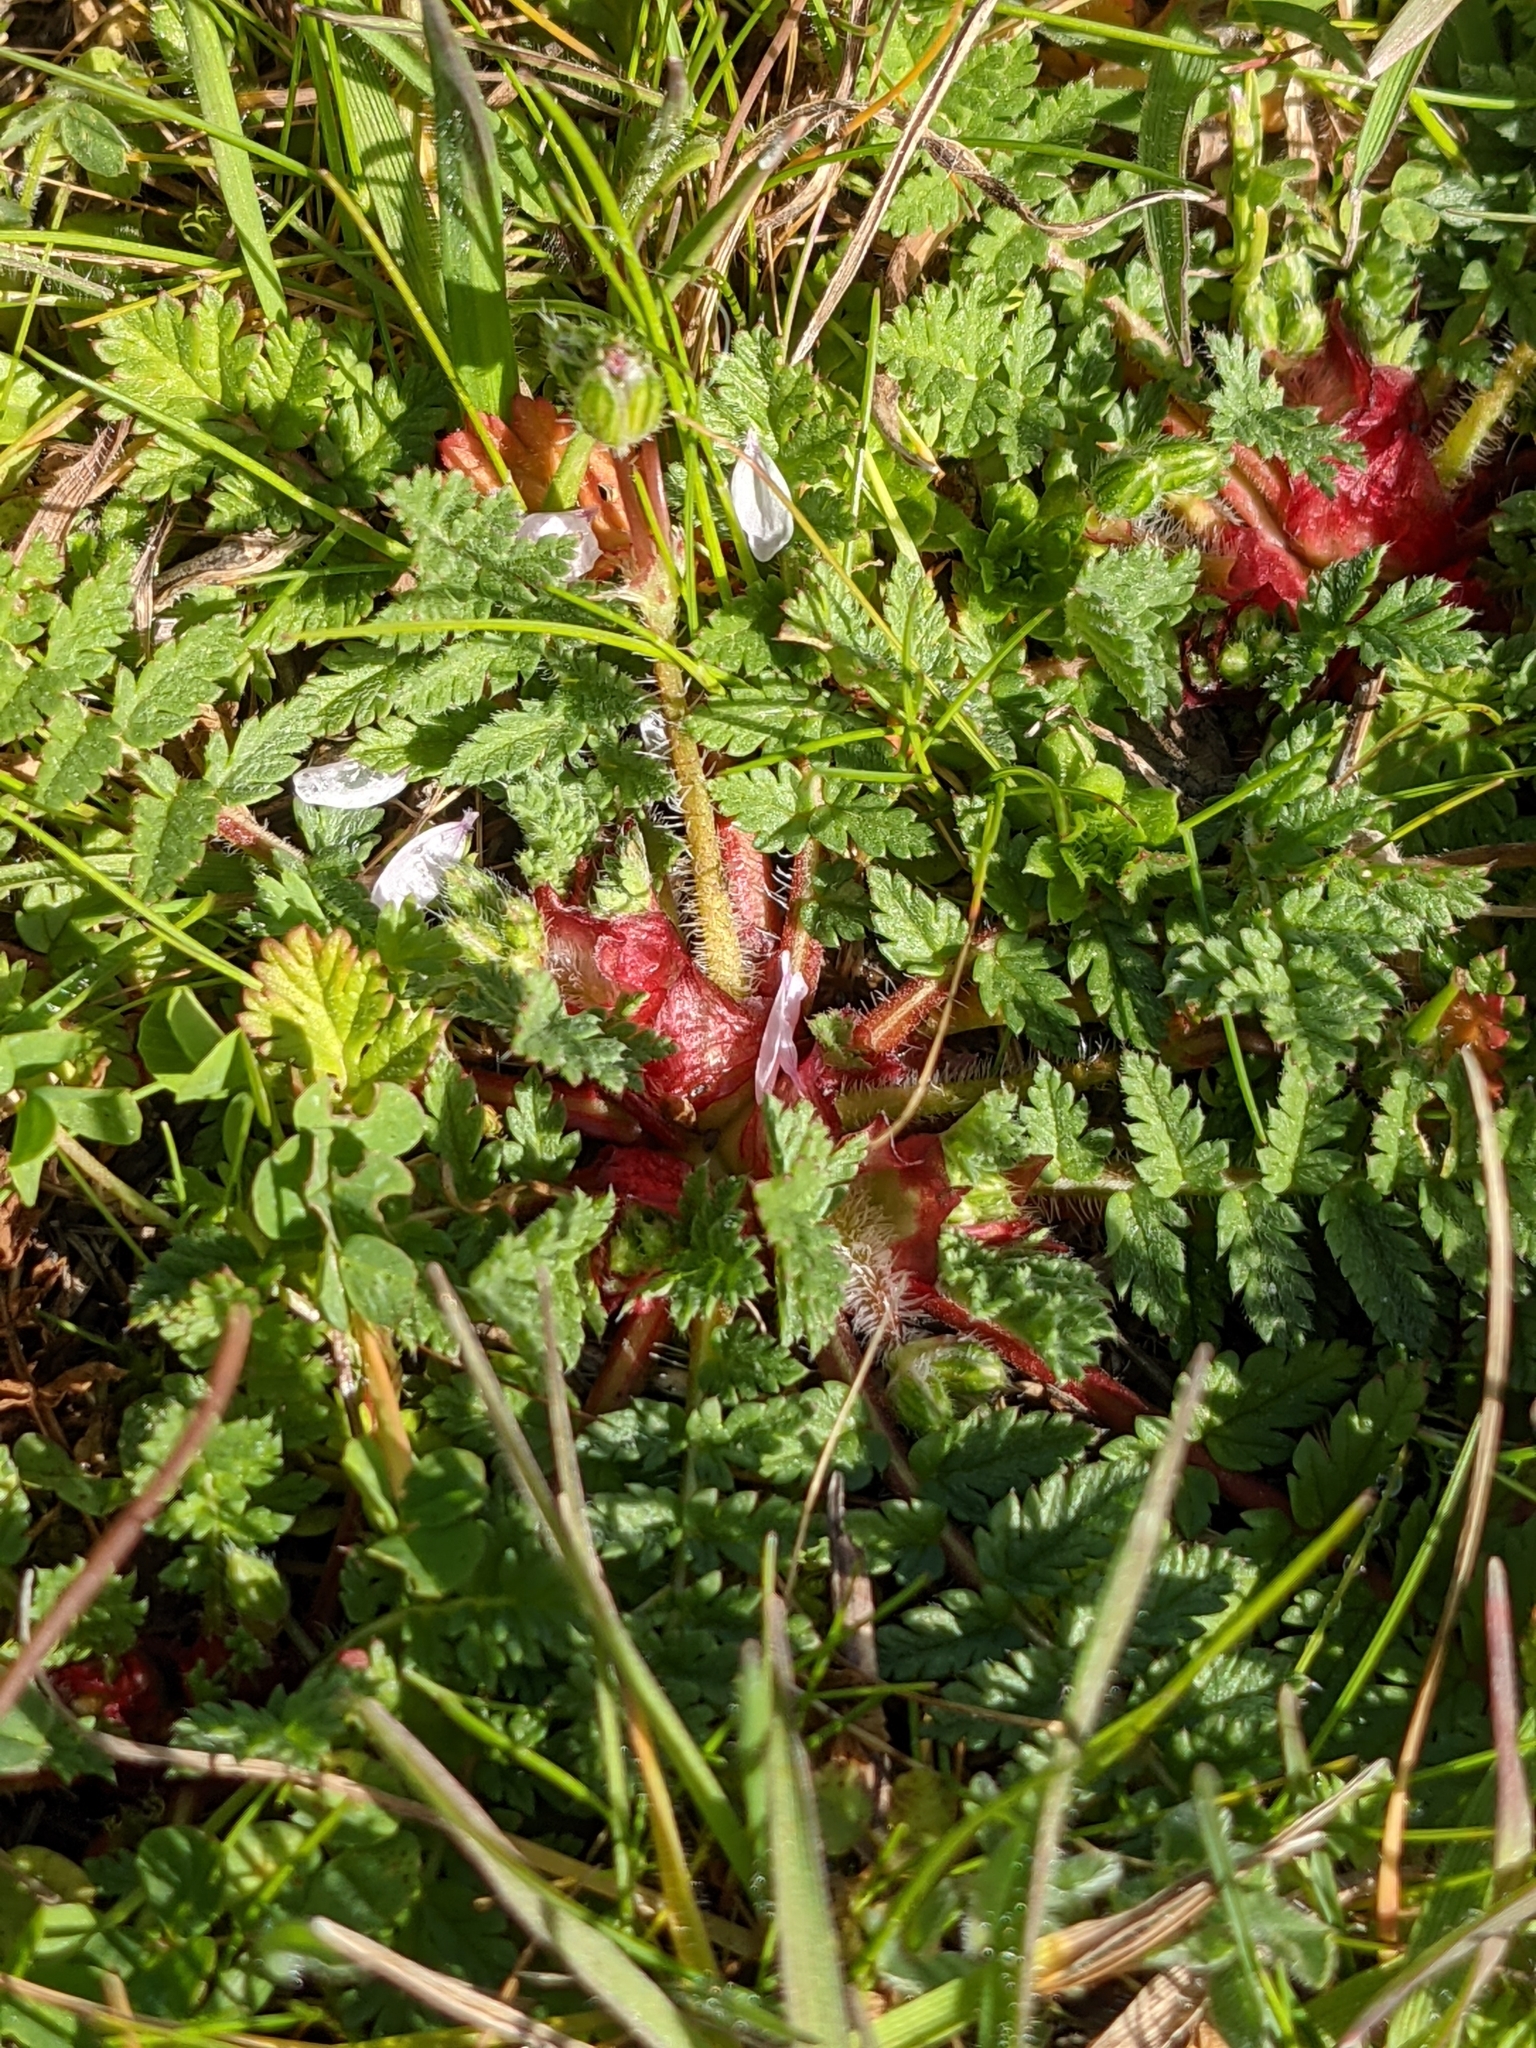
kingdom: Plantae
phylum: Tracheophyta
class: Magnoliopsida
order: Geraniales
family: Geraniaceae
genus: Erodium
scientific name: Erodium cicutarium
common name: Common stork's-bill
